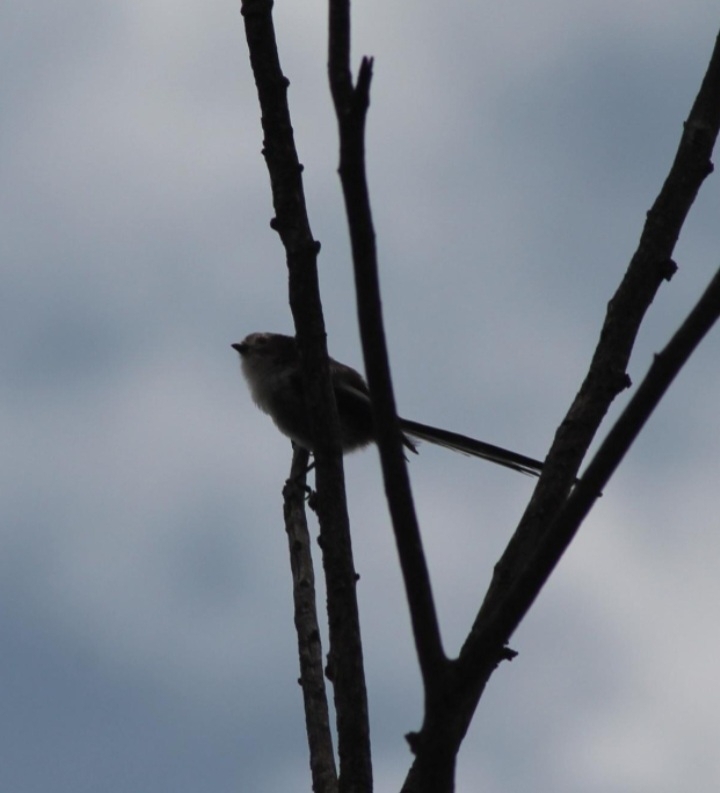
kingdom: Animalia
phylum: Chordata
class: Aves
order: Passeriformes
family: Aegithalidae
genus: Aegithalos
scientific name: Aegithalos caudatus
